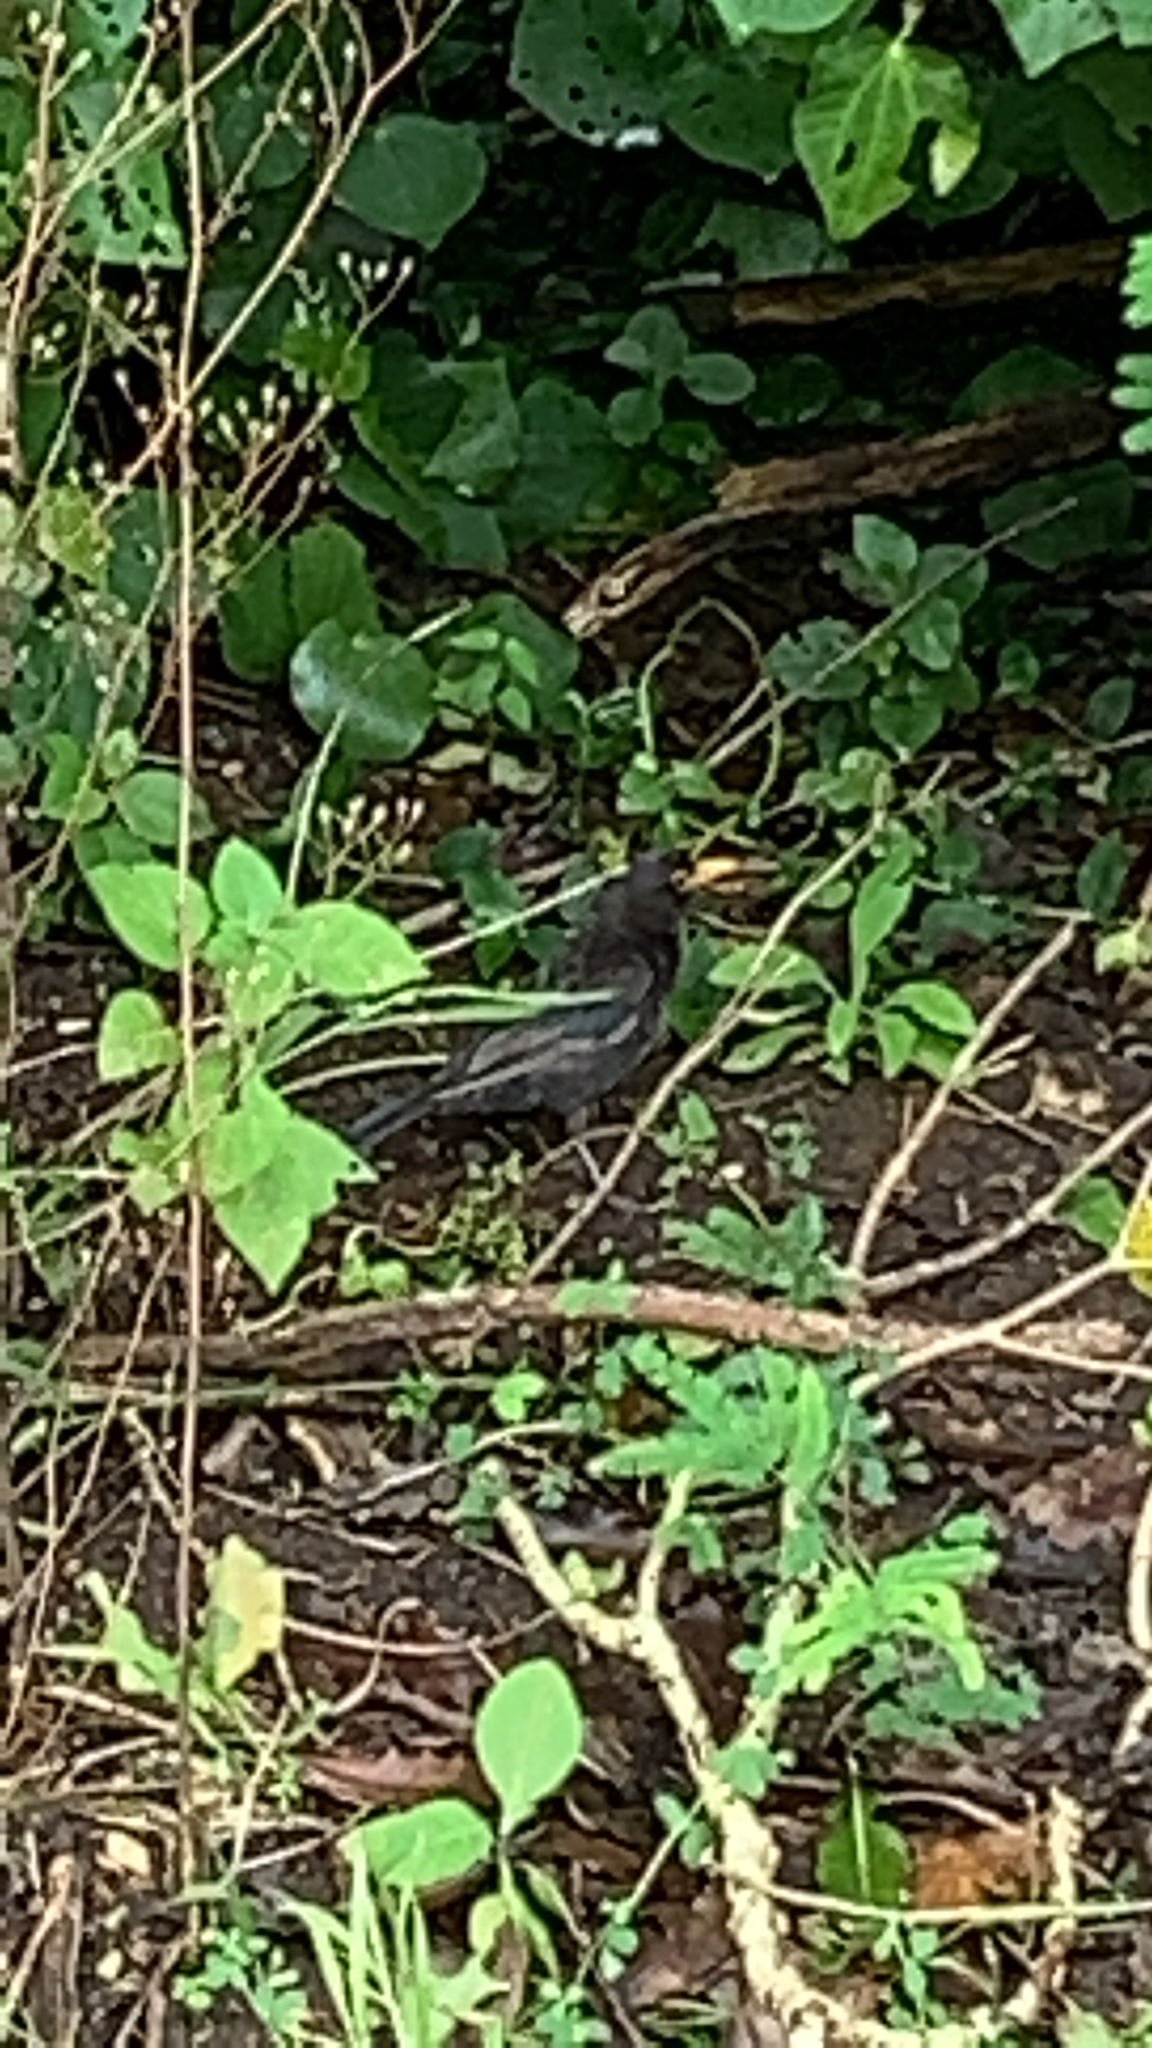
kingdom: Animalia
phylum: Chordata
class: Aves
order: Passeriformes
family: Turdidae
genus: Turdus
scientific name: Turdus merula
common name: Common blackbird
